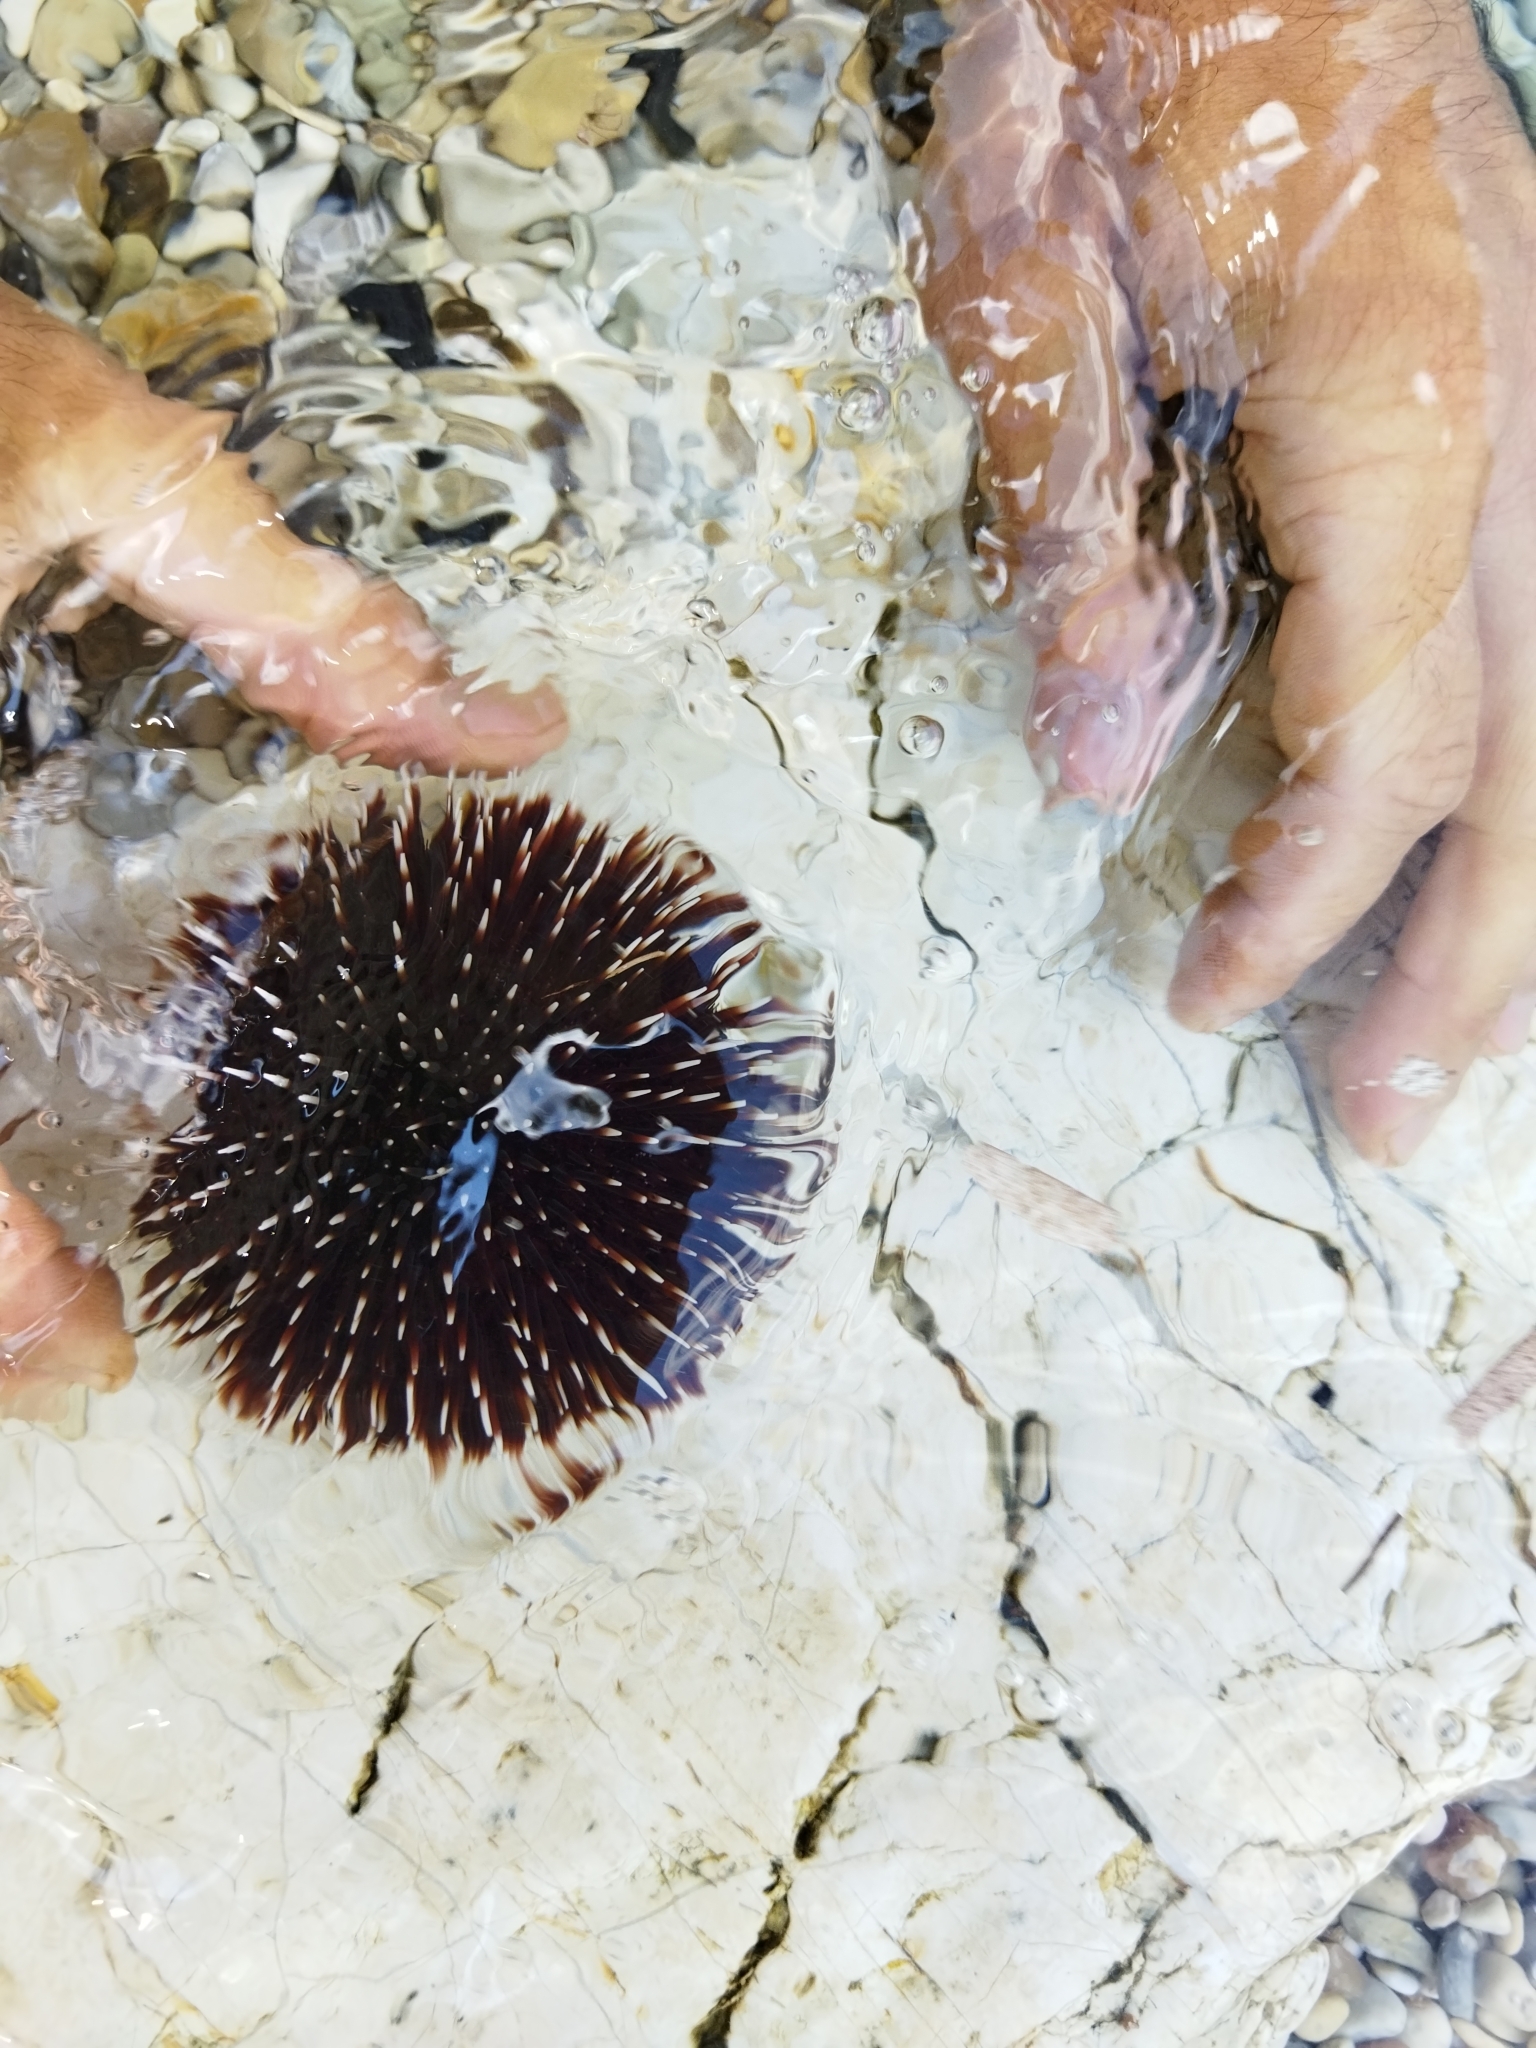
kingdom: Animalia
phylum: Echinodermata
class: Echinoidea
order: Camarodonta
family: Toxopneustidae
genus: Sphaerechinus
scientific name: Sphaerechinus granularis
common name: Violet sea urchin
